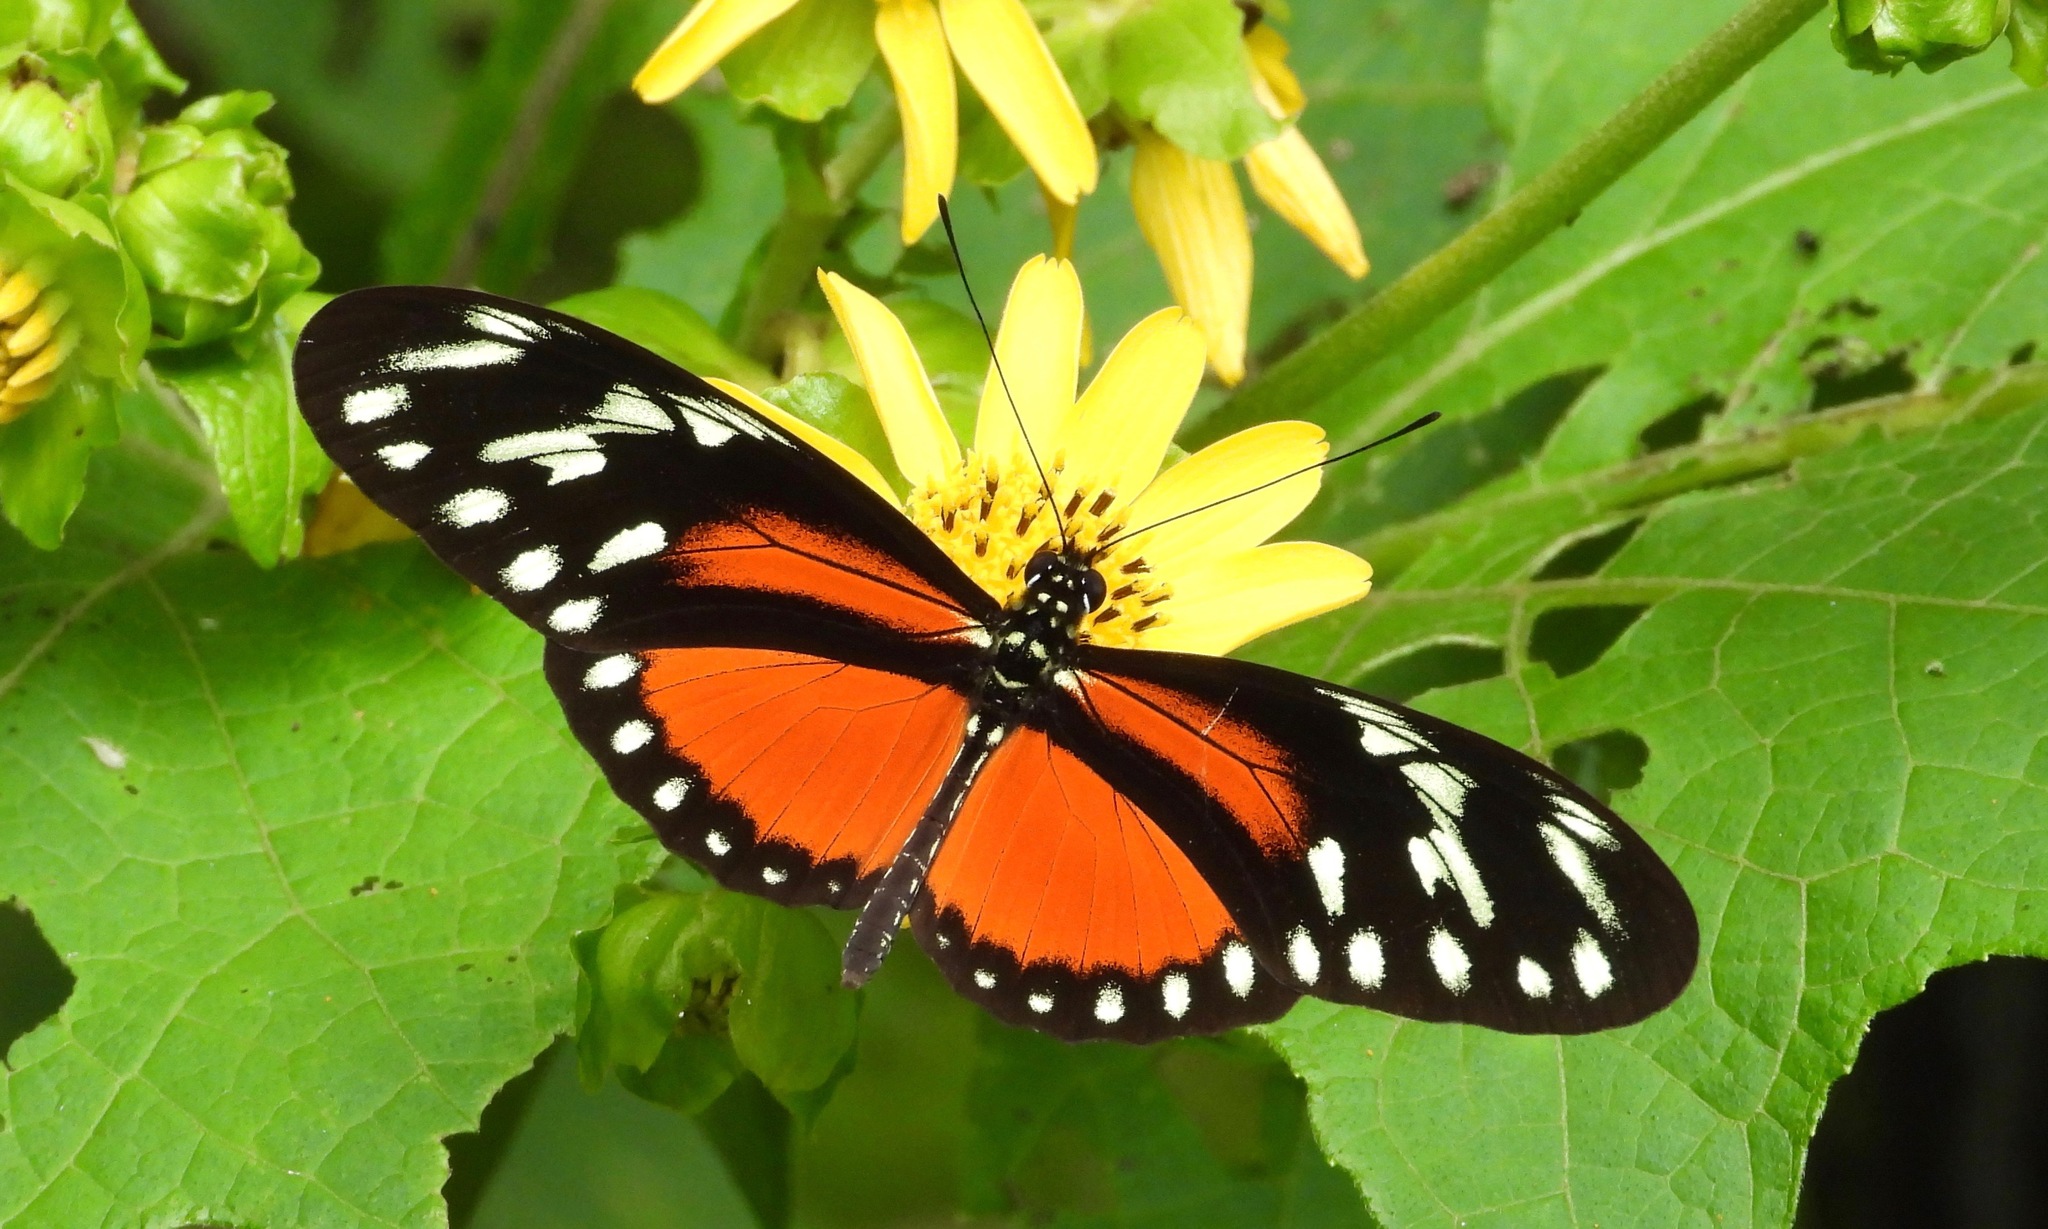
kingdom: Animalia
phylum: Arthropoda
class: Insecta
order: Lepidoptera
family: Nymphalidae
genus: Heliconius
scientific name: Heliconius hecalesia
